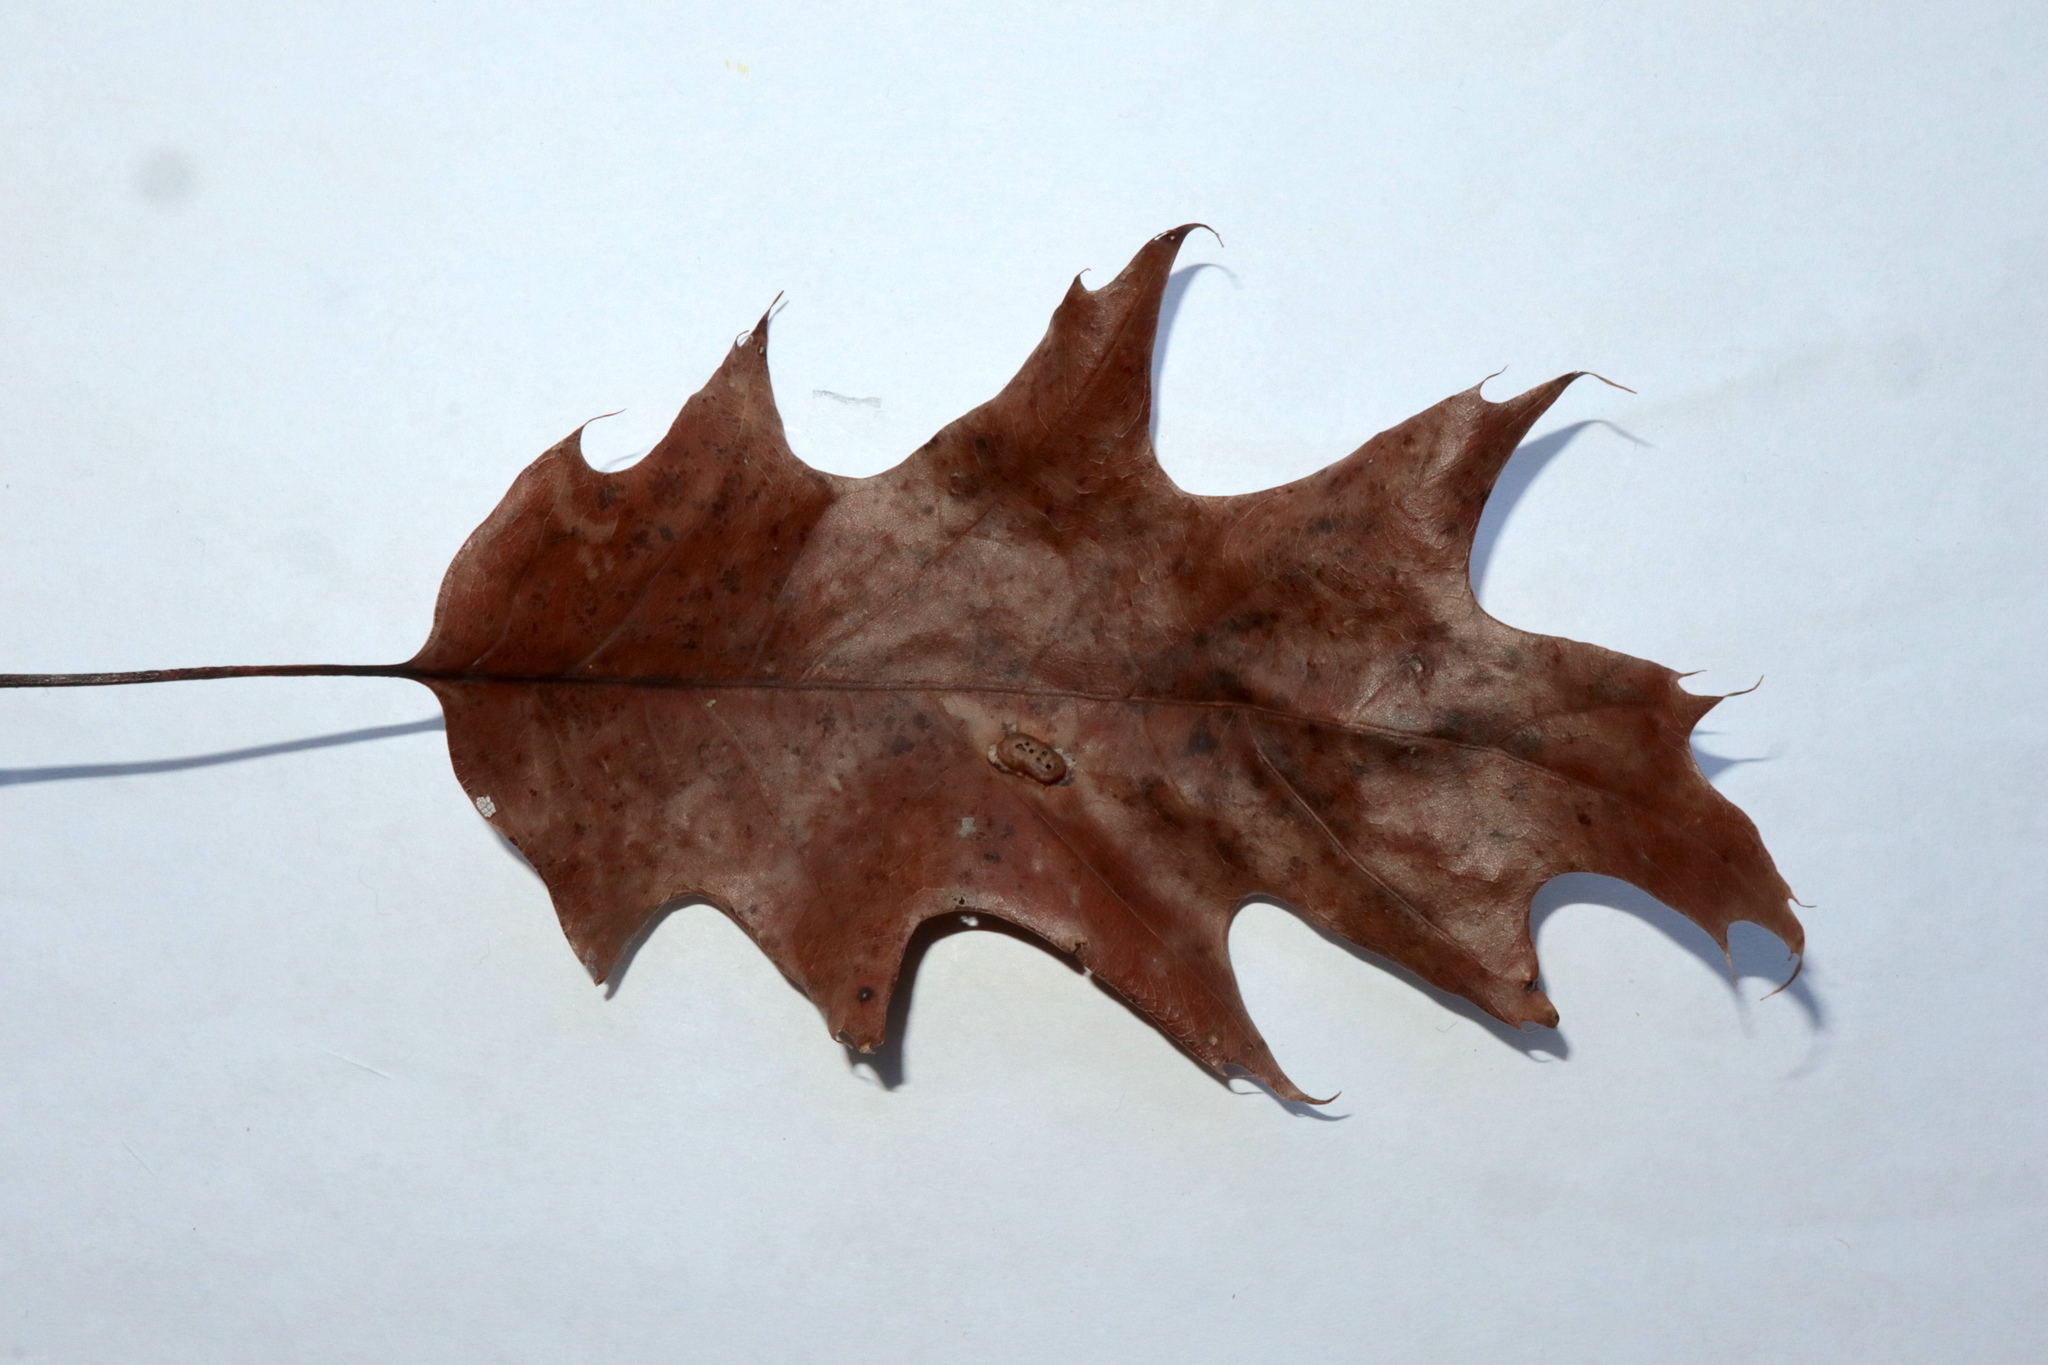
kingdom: Animalia
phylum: Arthropoda
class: Insecta
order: Hymenoptera
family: Cynipidae
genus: Callirhytis
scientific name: Callirhytis
